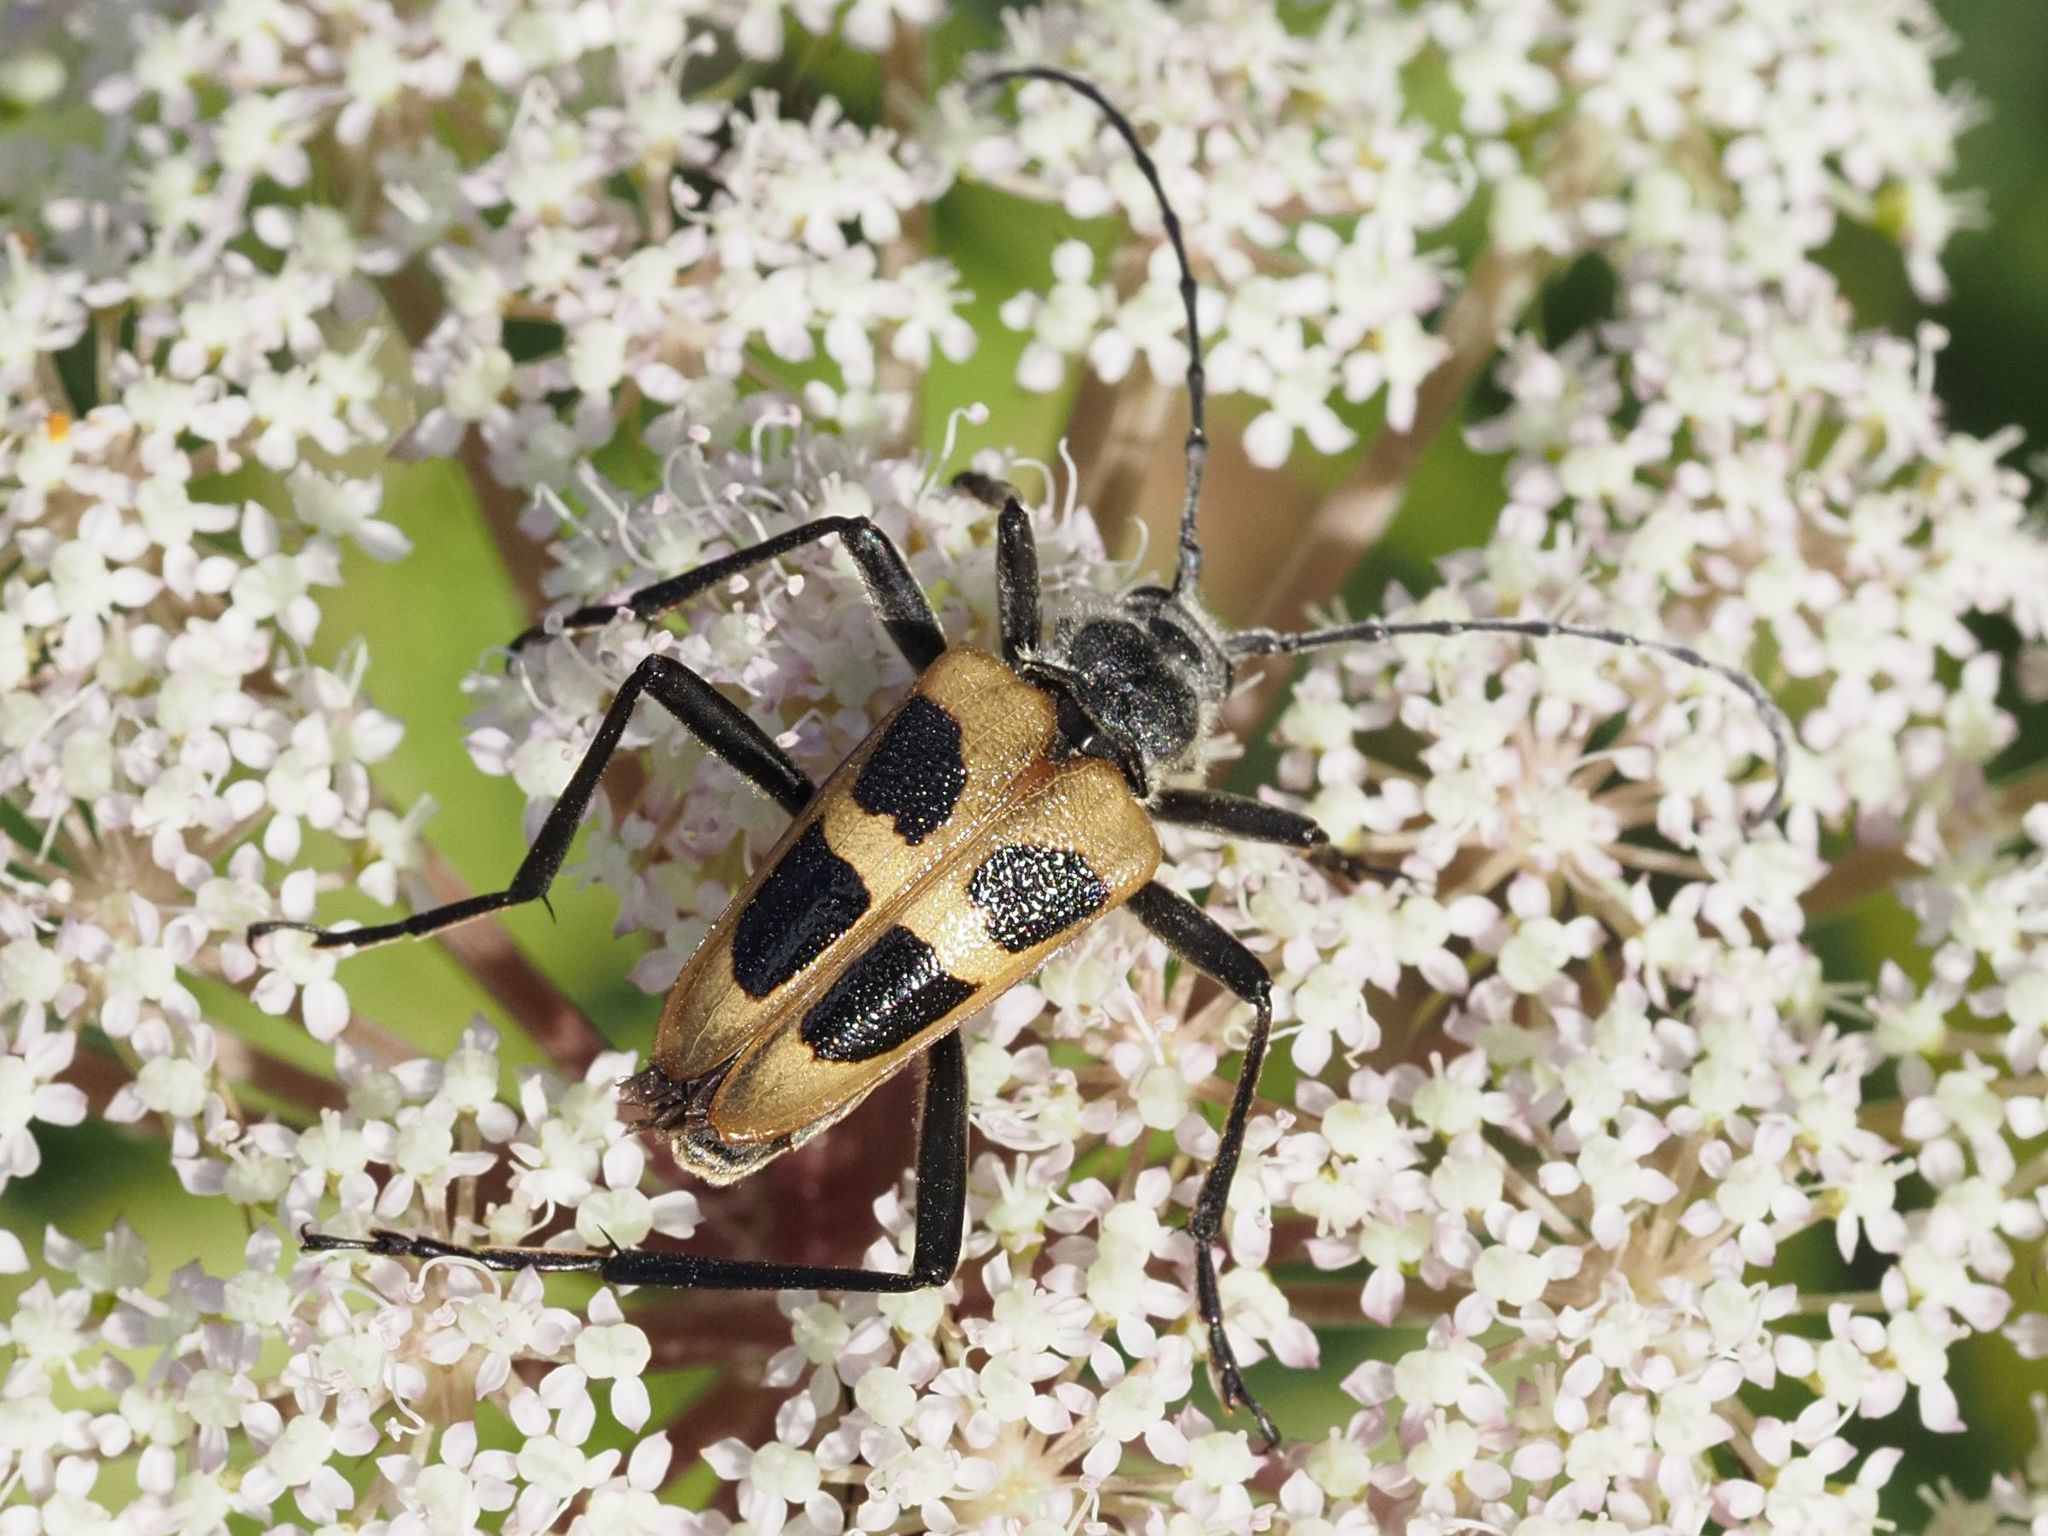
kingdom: Animalia
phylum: Arthropoda
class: Insecta
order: Coleoptera
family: Cerambycidae
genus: Pachyta
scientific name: Pachyta quadrimaculata
